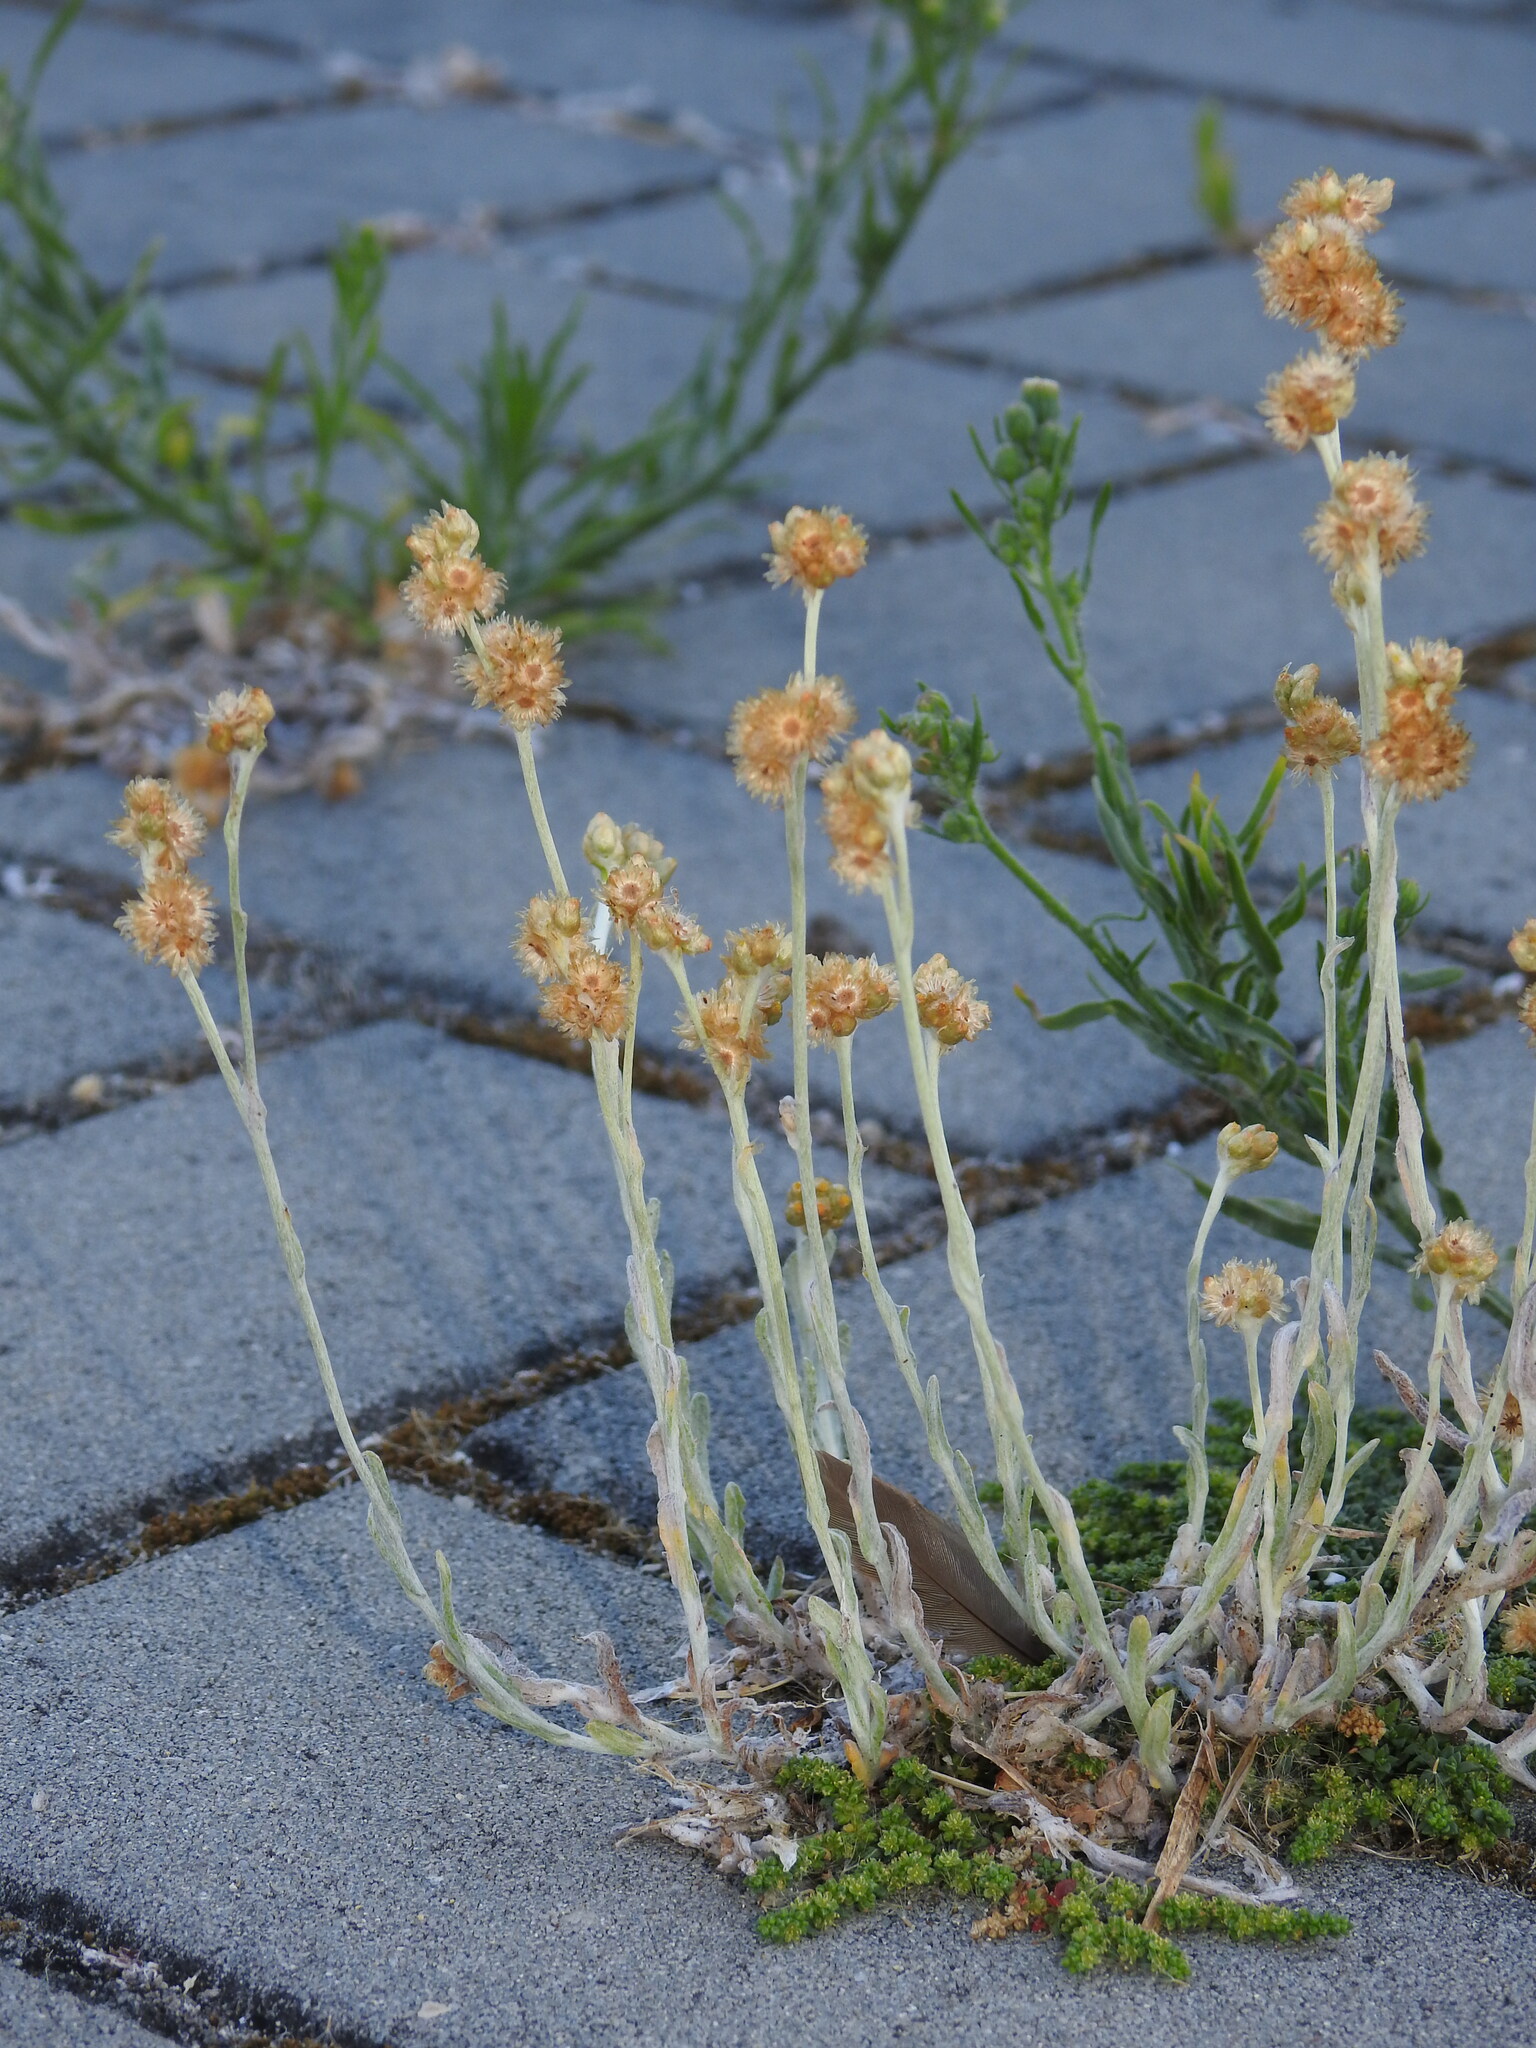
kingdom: Plantae
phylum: Tracheophyta
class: Magnoliopsida
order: Asterales
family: Asteraceae
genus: Helichrysum
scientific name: Helichrysum luteoalbum
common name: Daisy
